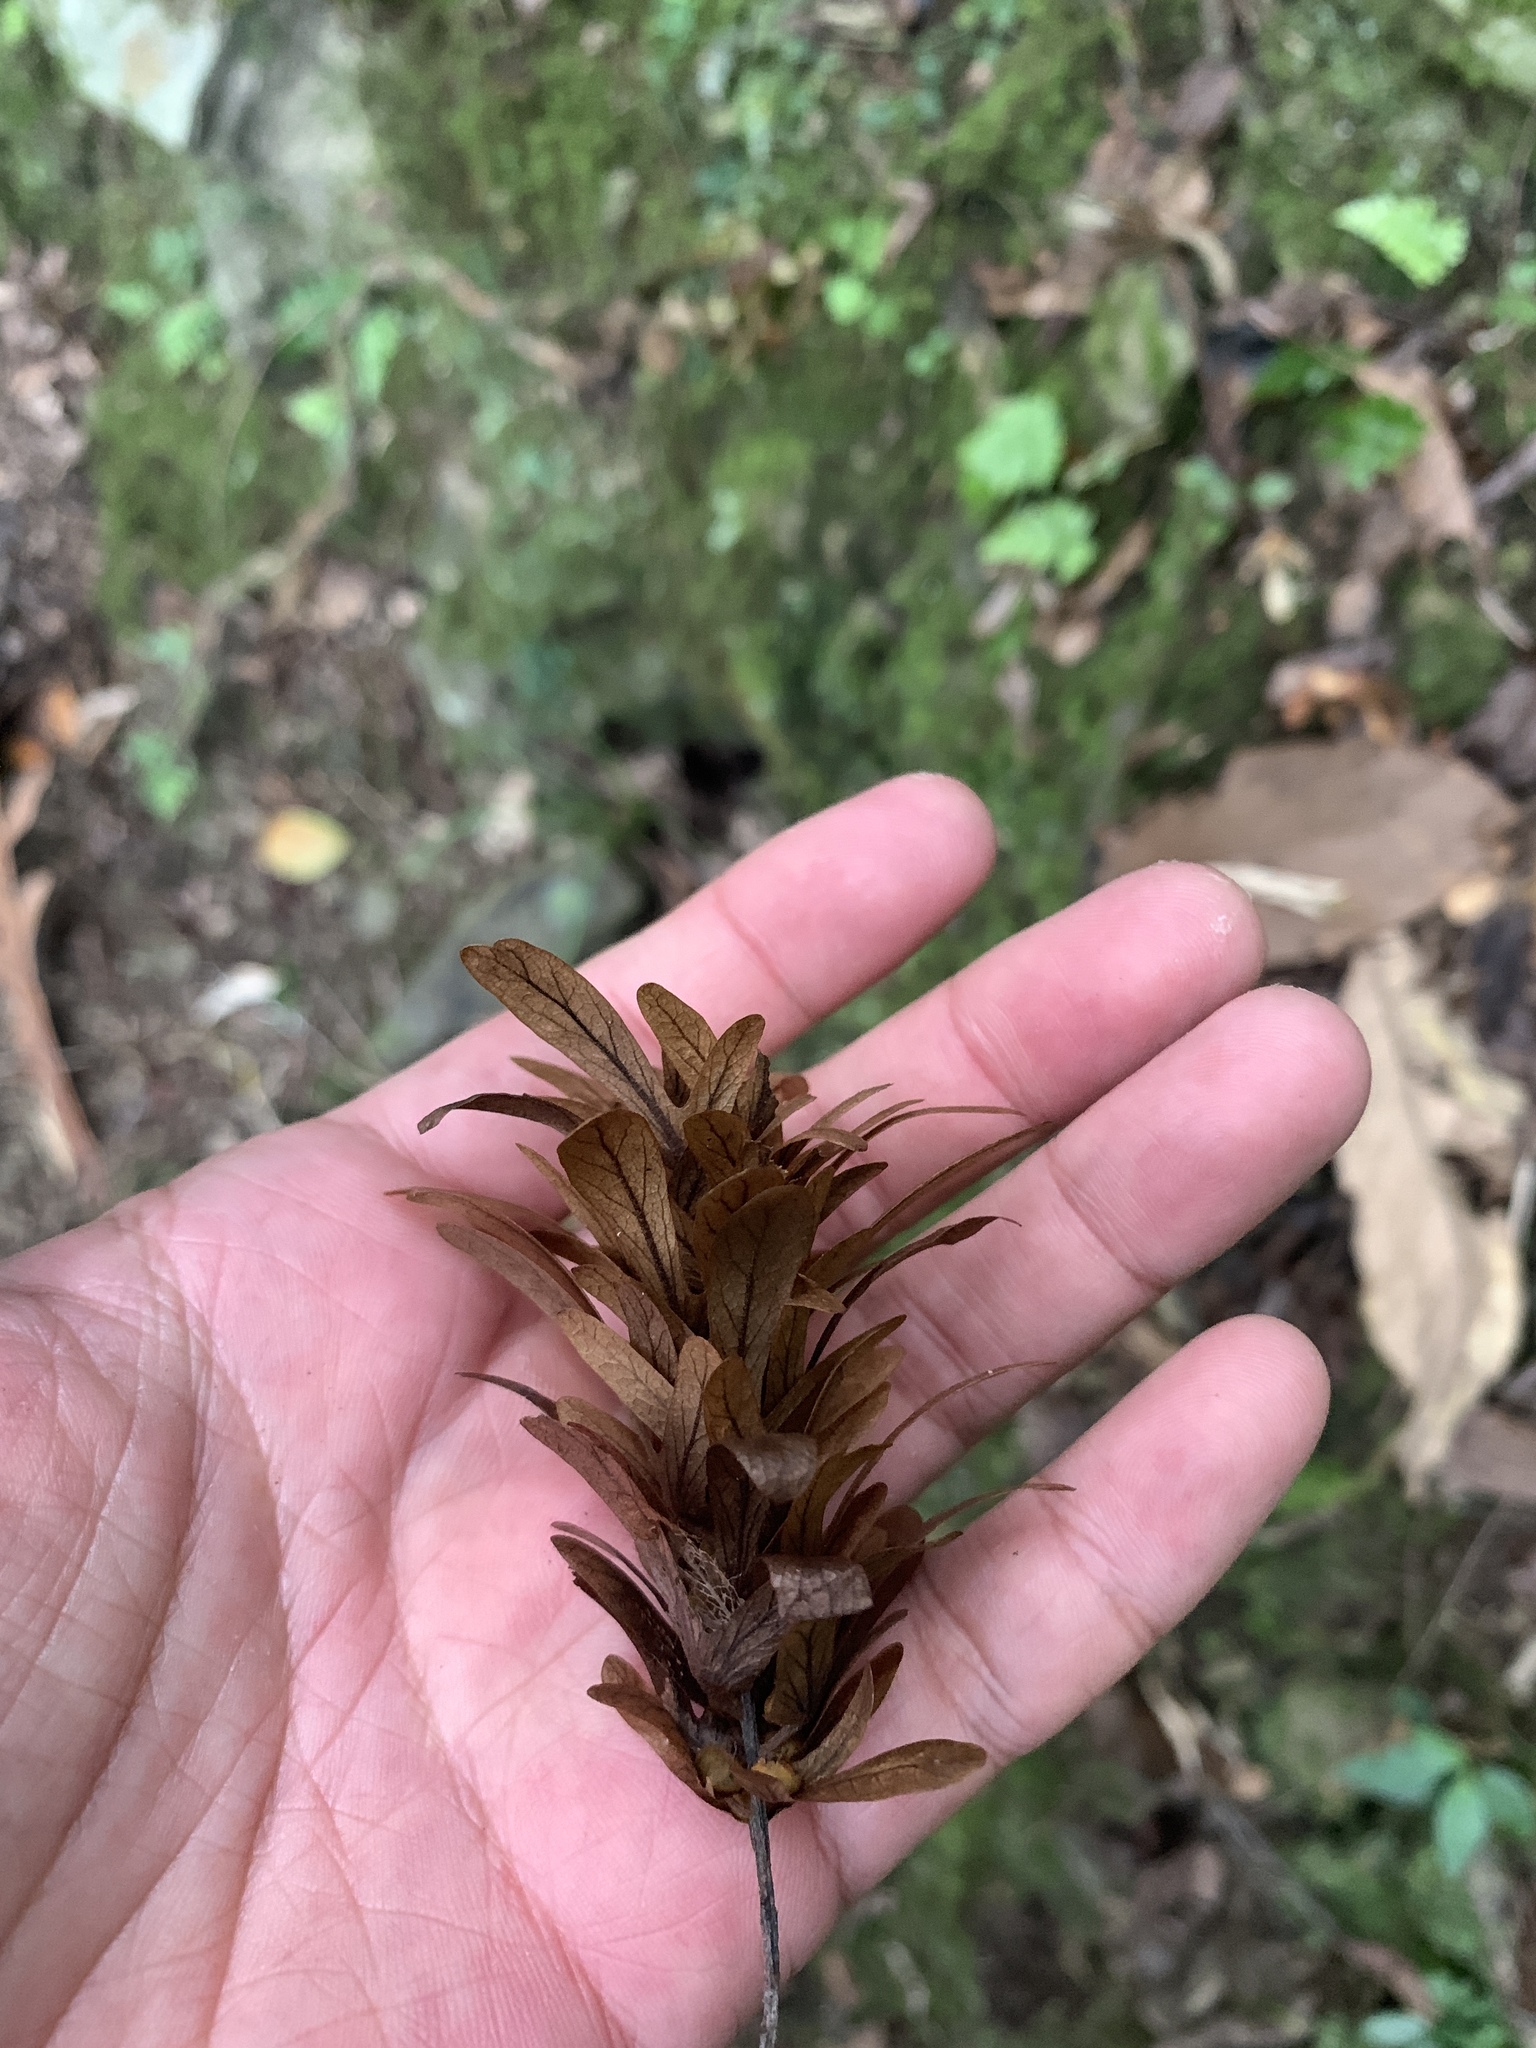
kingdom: Plantae
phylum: Tracheophyta
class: Magnoliopsida
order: Fagales
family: Juglandaceae
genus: Engelhardia
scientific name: Engelhardia roxburghiana
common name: Golden malay beam
